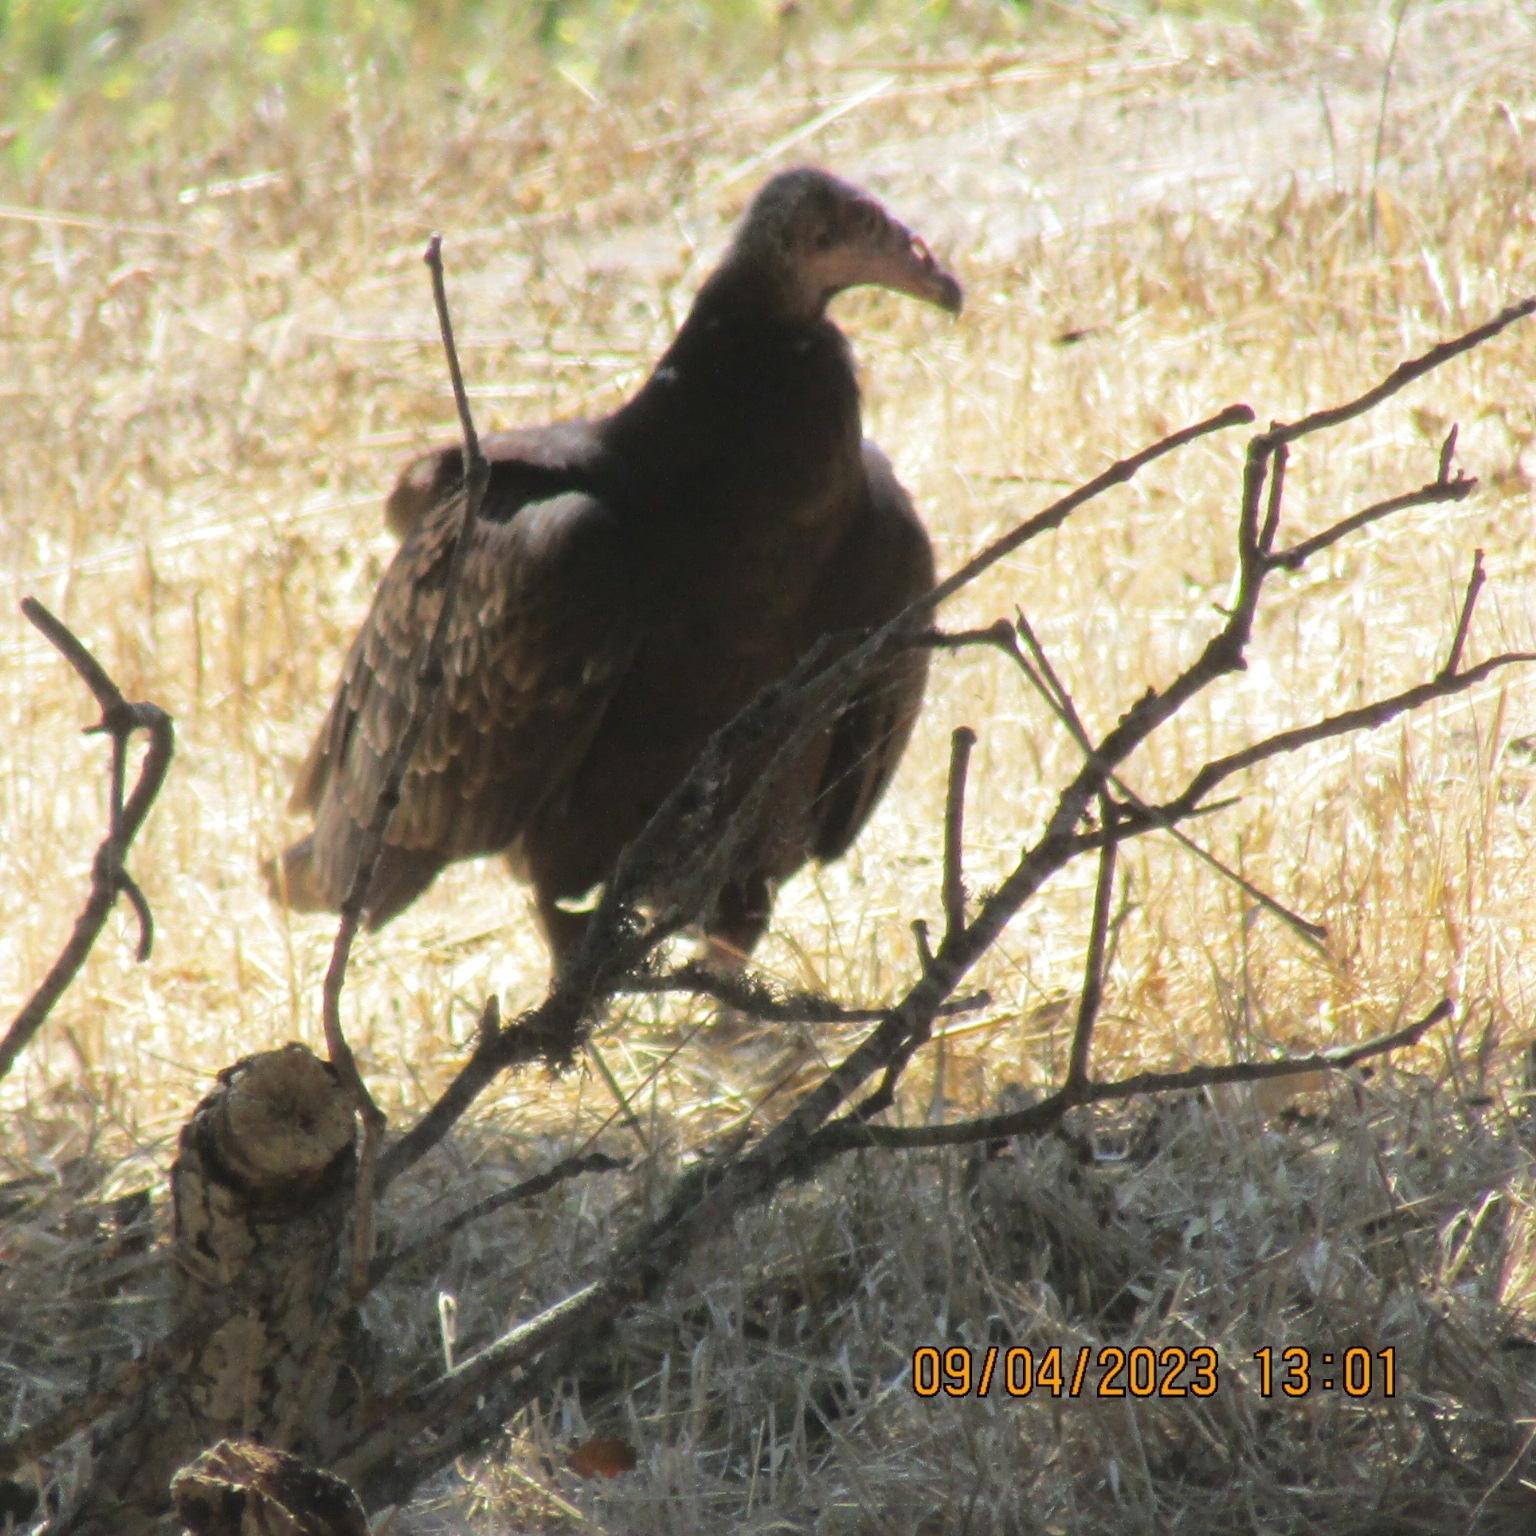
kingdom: Animalia
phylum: Chordata
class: Aves
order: Accipitriformes
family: Cathartidae
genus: Cathartes
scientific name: Cathartes aura
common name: Turkey vulture
